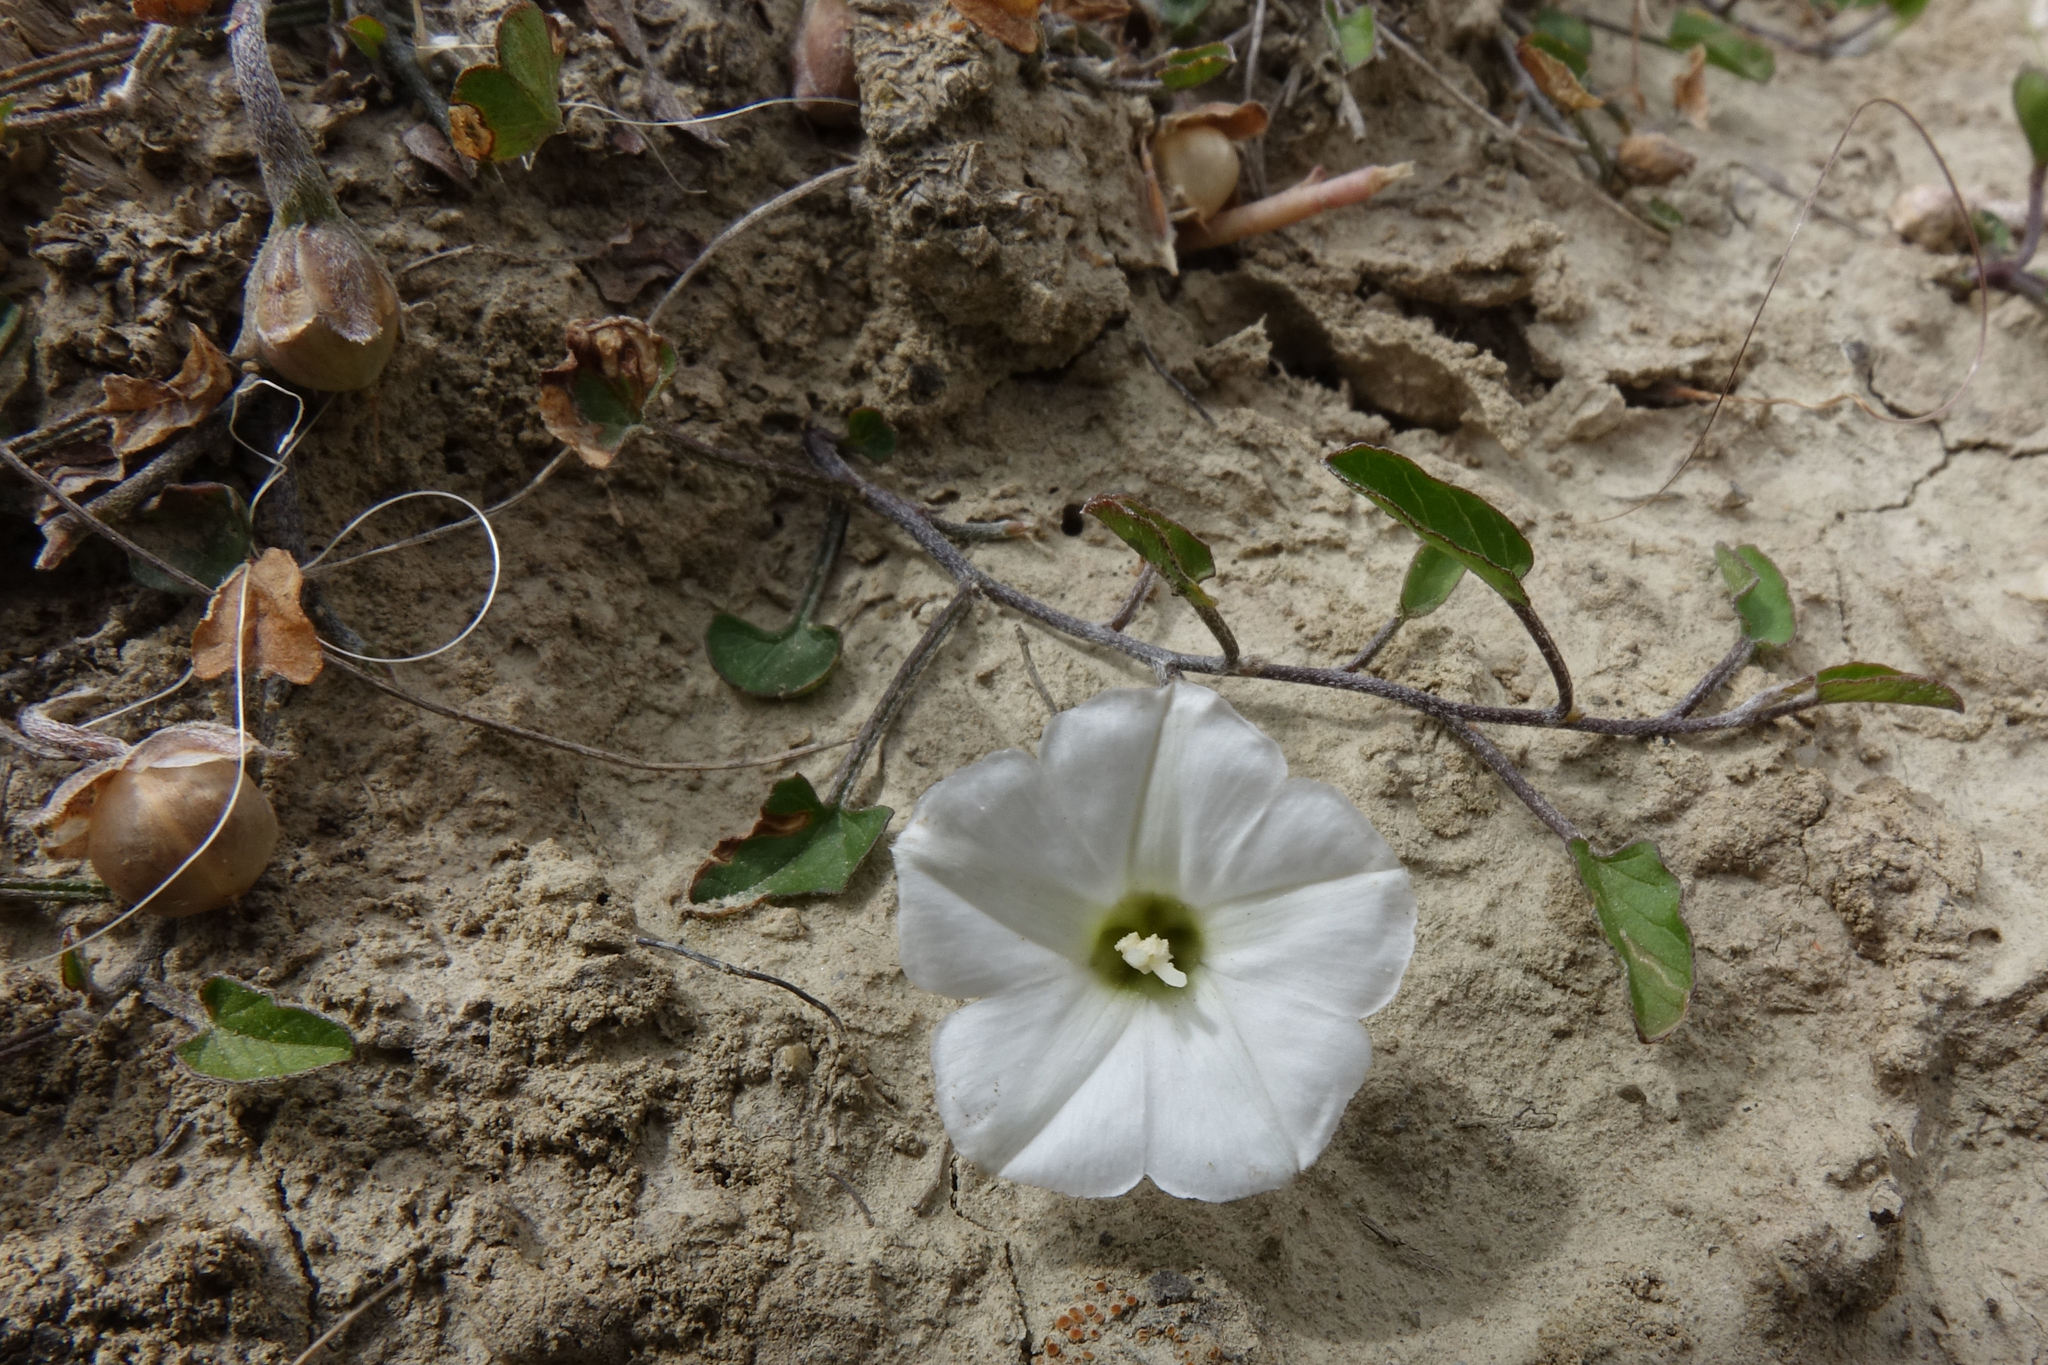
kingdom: Plantae
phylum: Tracheophyta
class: Magnoliopsida
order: Solanales
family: Convolvulaceae
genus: Convolvulus
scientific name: Convolvulus waitaha
